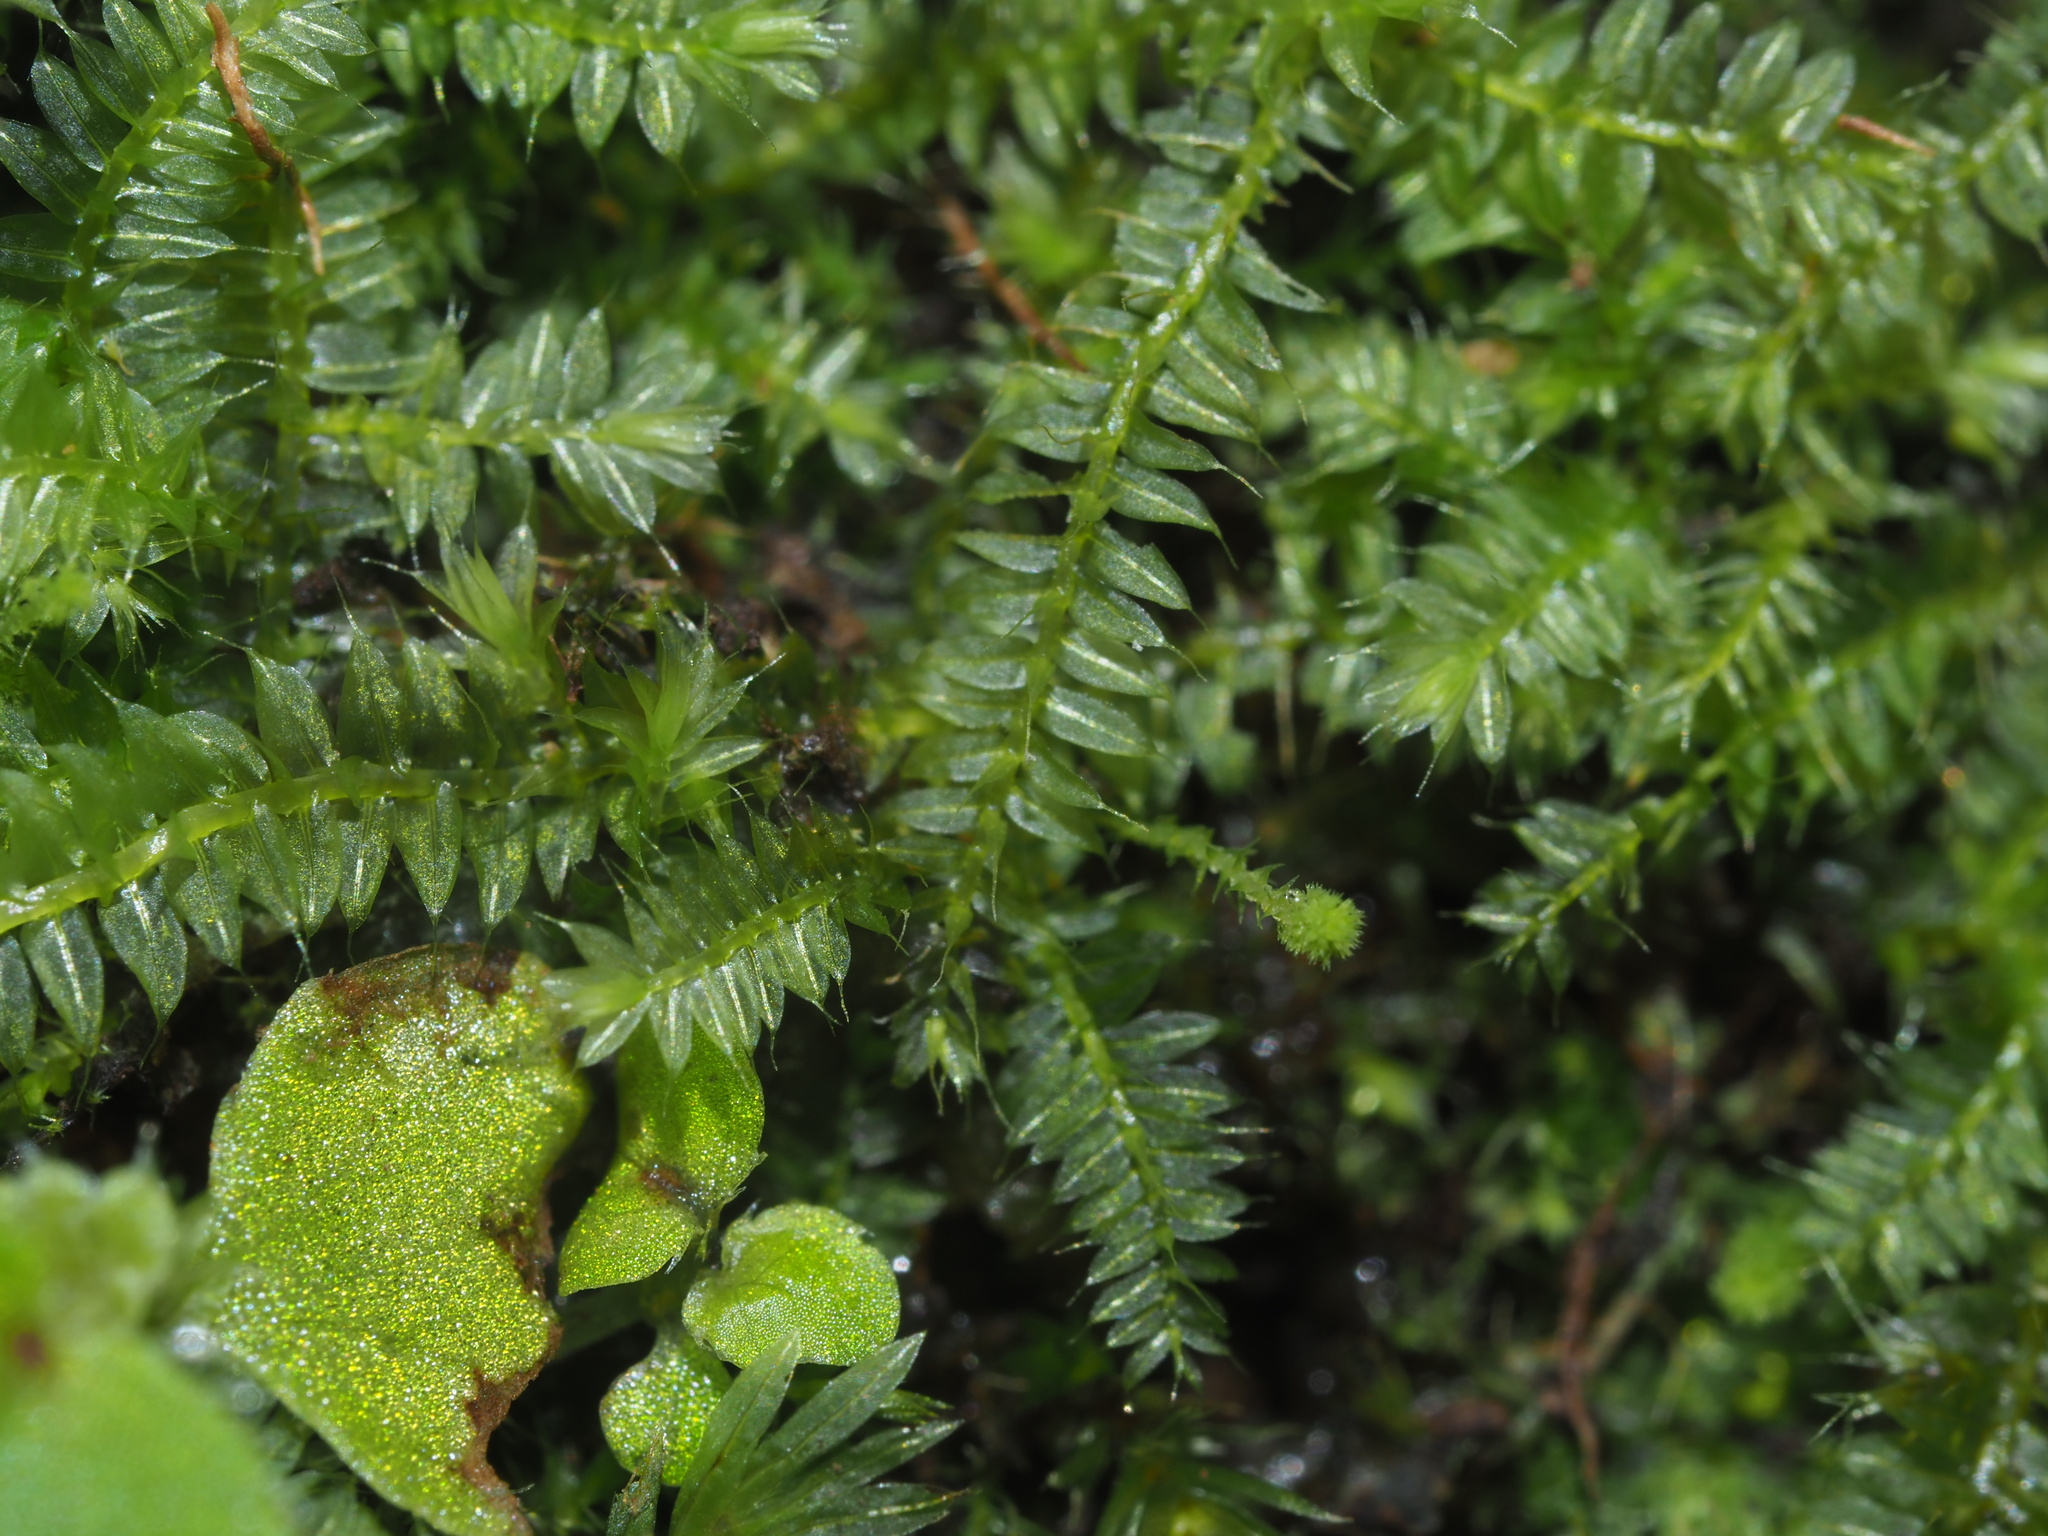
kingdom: Plantae
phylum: Bryophyta
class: Bryopsida
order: Hypnodendrales
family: Racopilaceae
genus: Racopilum
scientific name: Racopilum cuspidigerum
